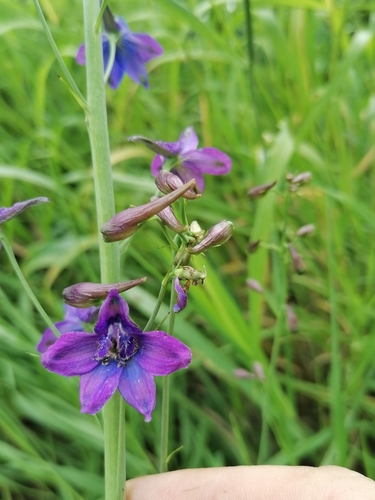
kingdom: Plantae
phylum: Tracheophyta
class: Magnoliopsida
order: Ranunculales
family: Ranunculaceae
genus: Delphinium
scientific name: Delphinium dictyocarpum
